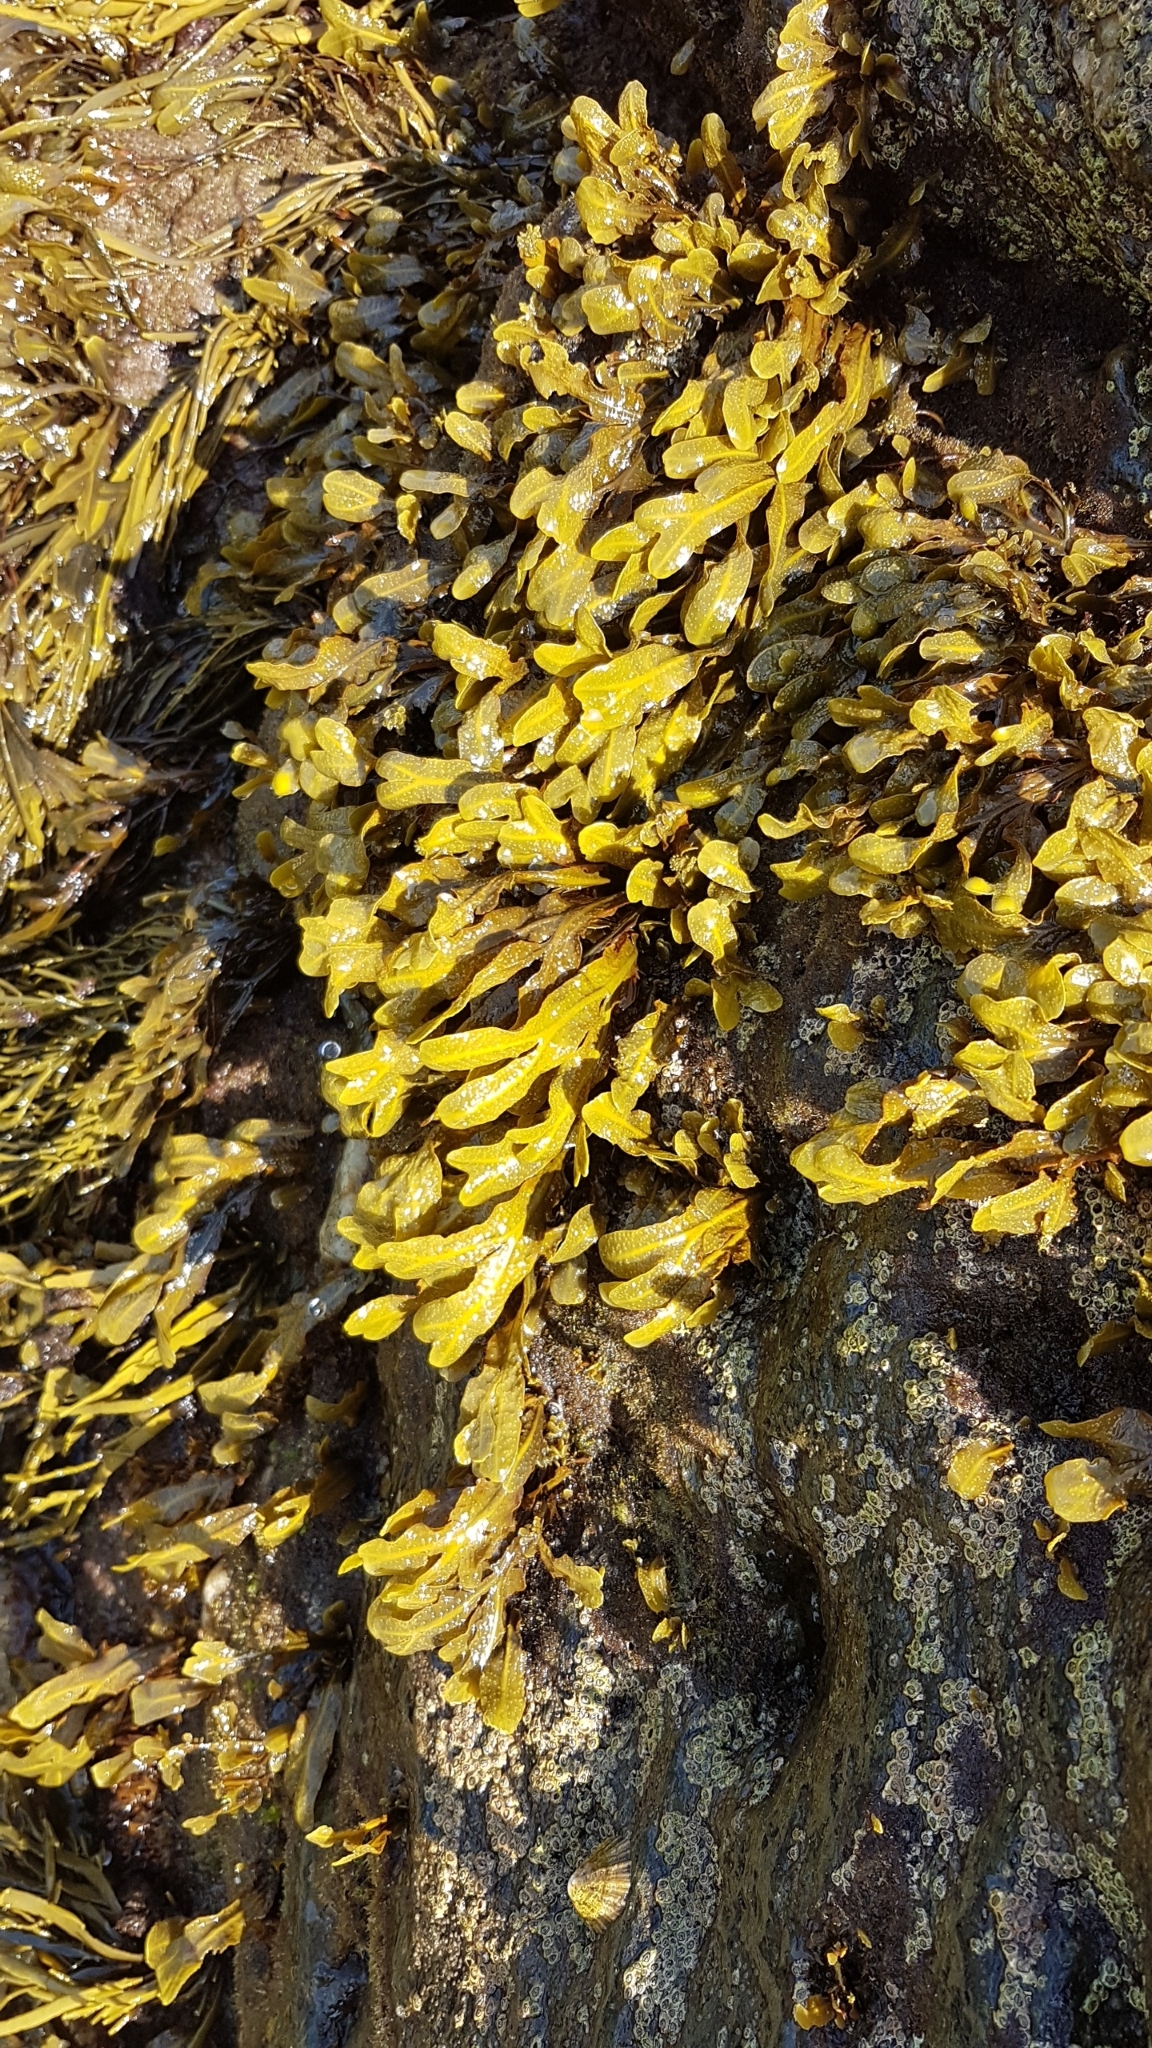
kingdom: Chromista
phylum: Ochrophyta
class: Phaeophyceae
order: Fucales
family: Fucaceae
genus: Fucus
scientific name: Fucus spiralis
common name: Spiral wrack
